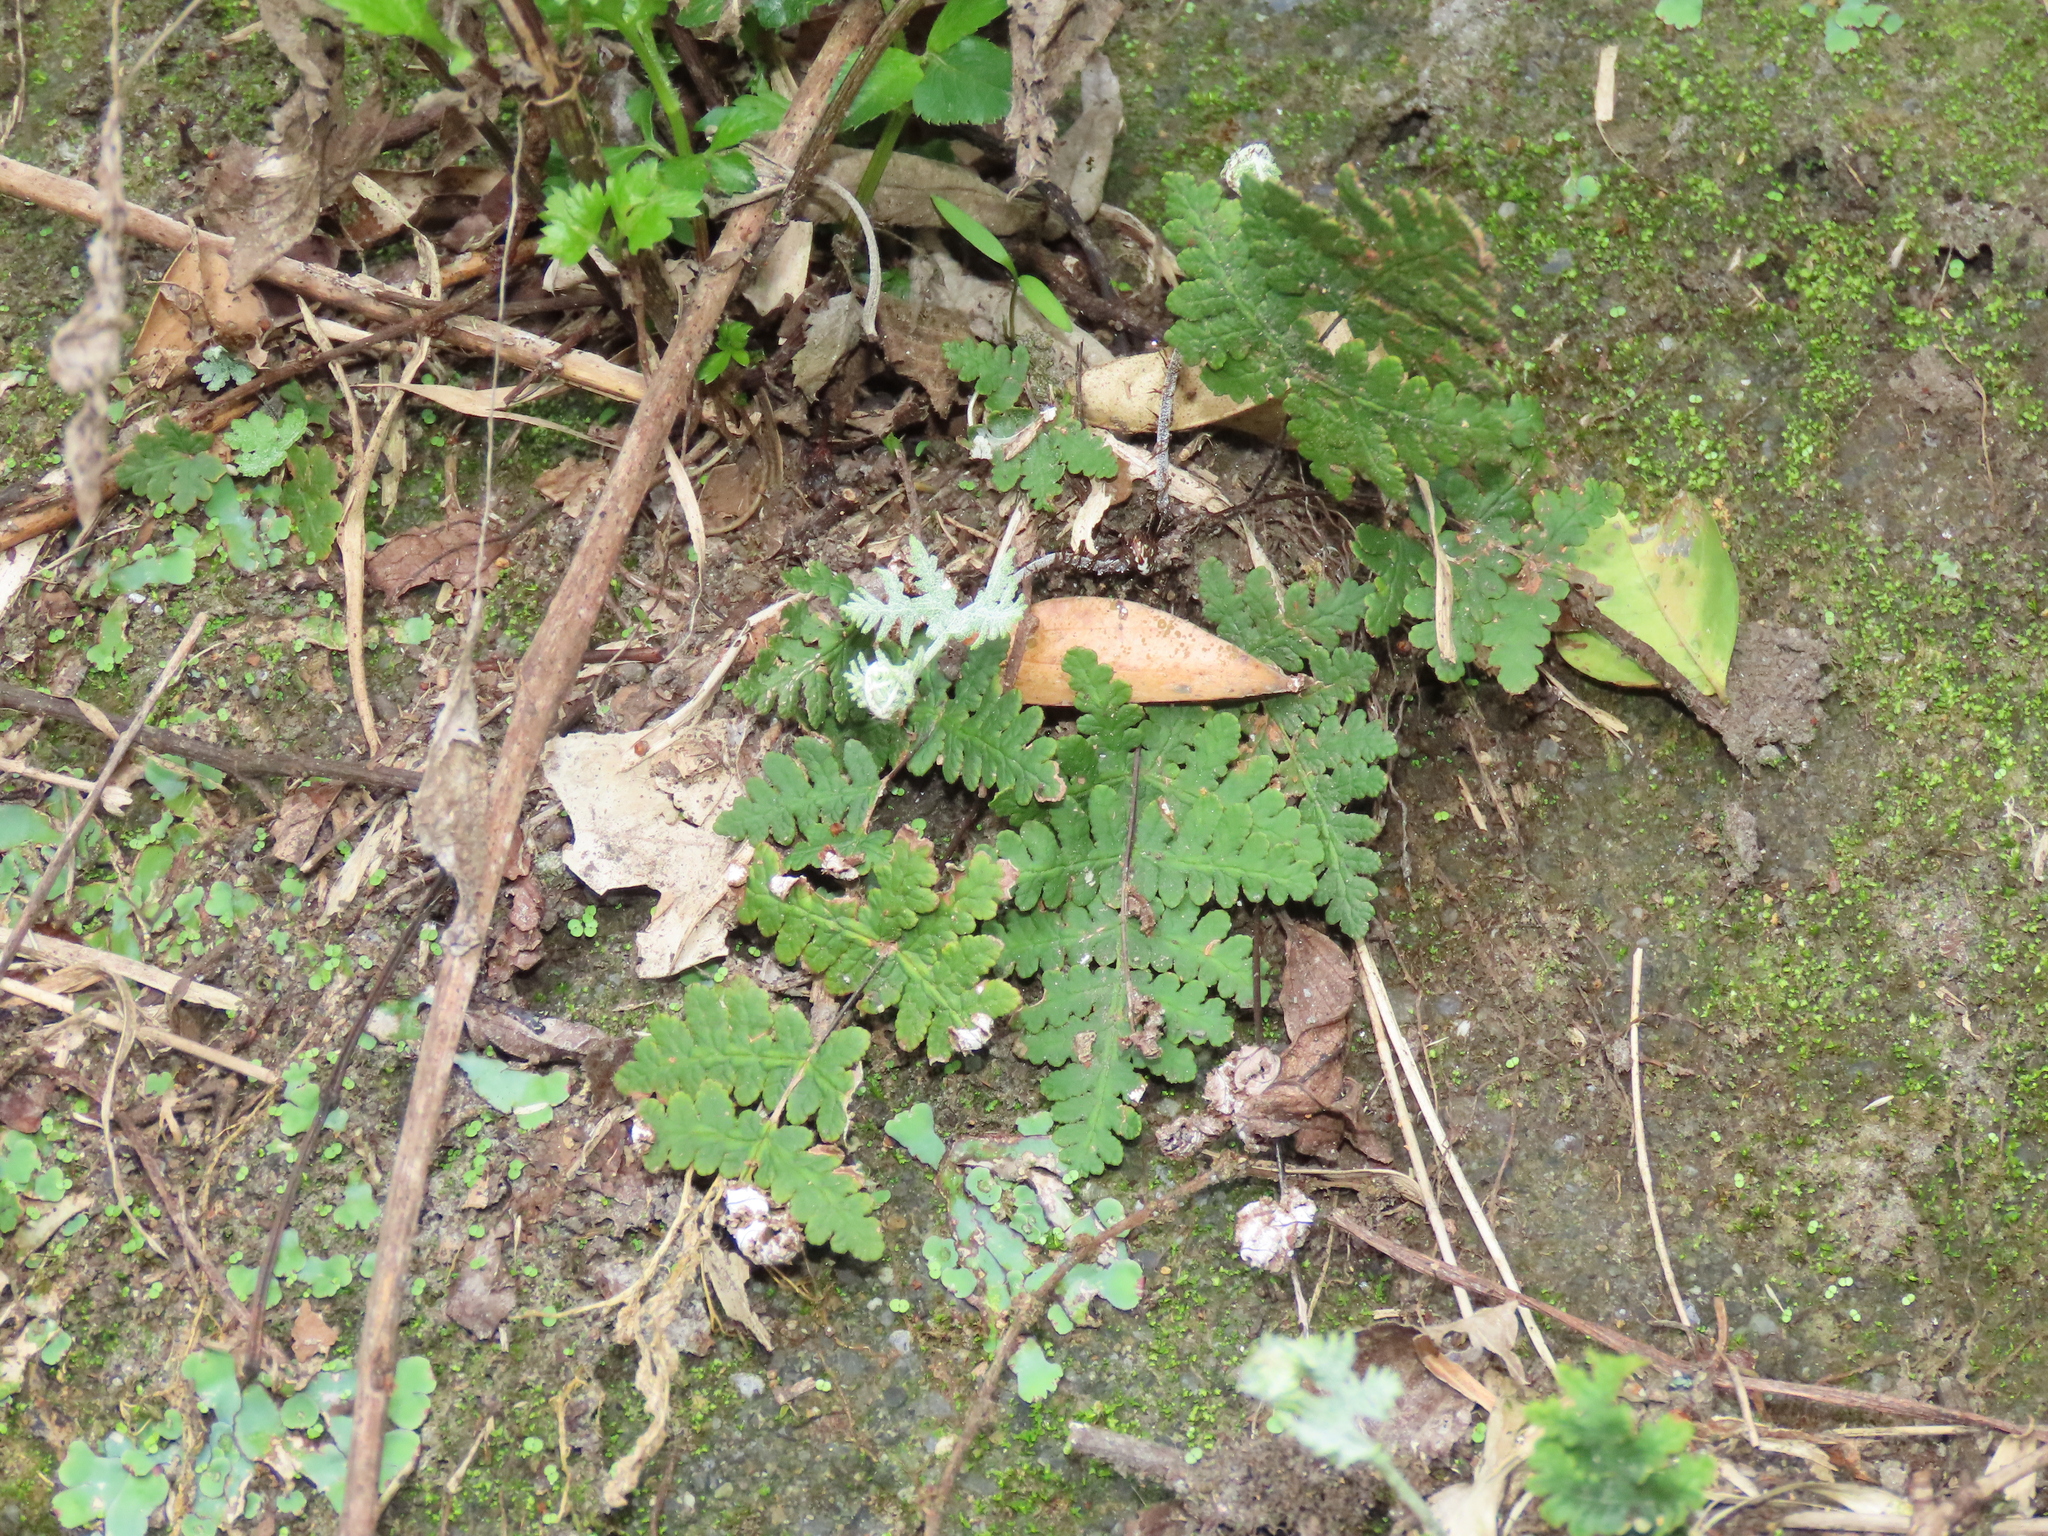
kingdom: Plantae
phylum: Tracheophyta
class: Polypodiopsida
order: Polypodiales
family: Pteridaceae
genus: Aleuritopteris
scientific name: Aleuritopteris formosana
